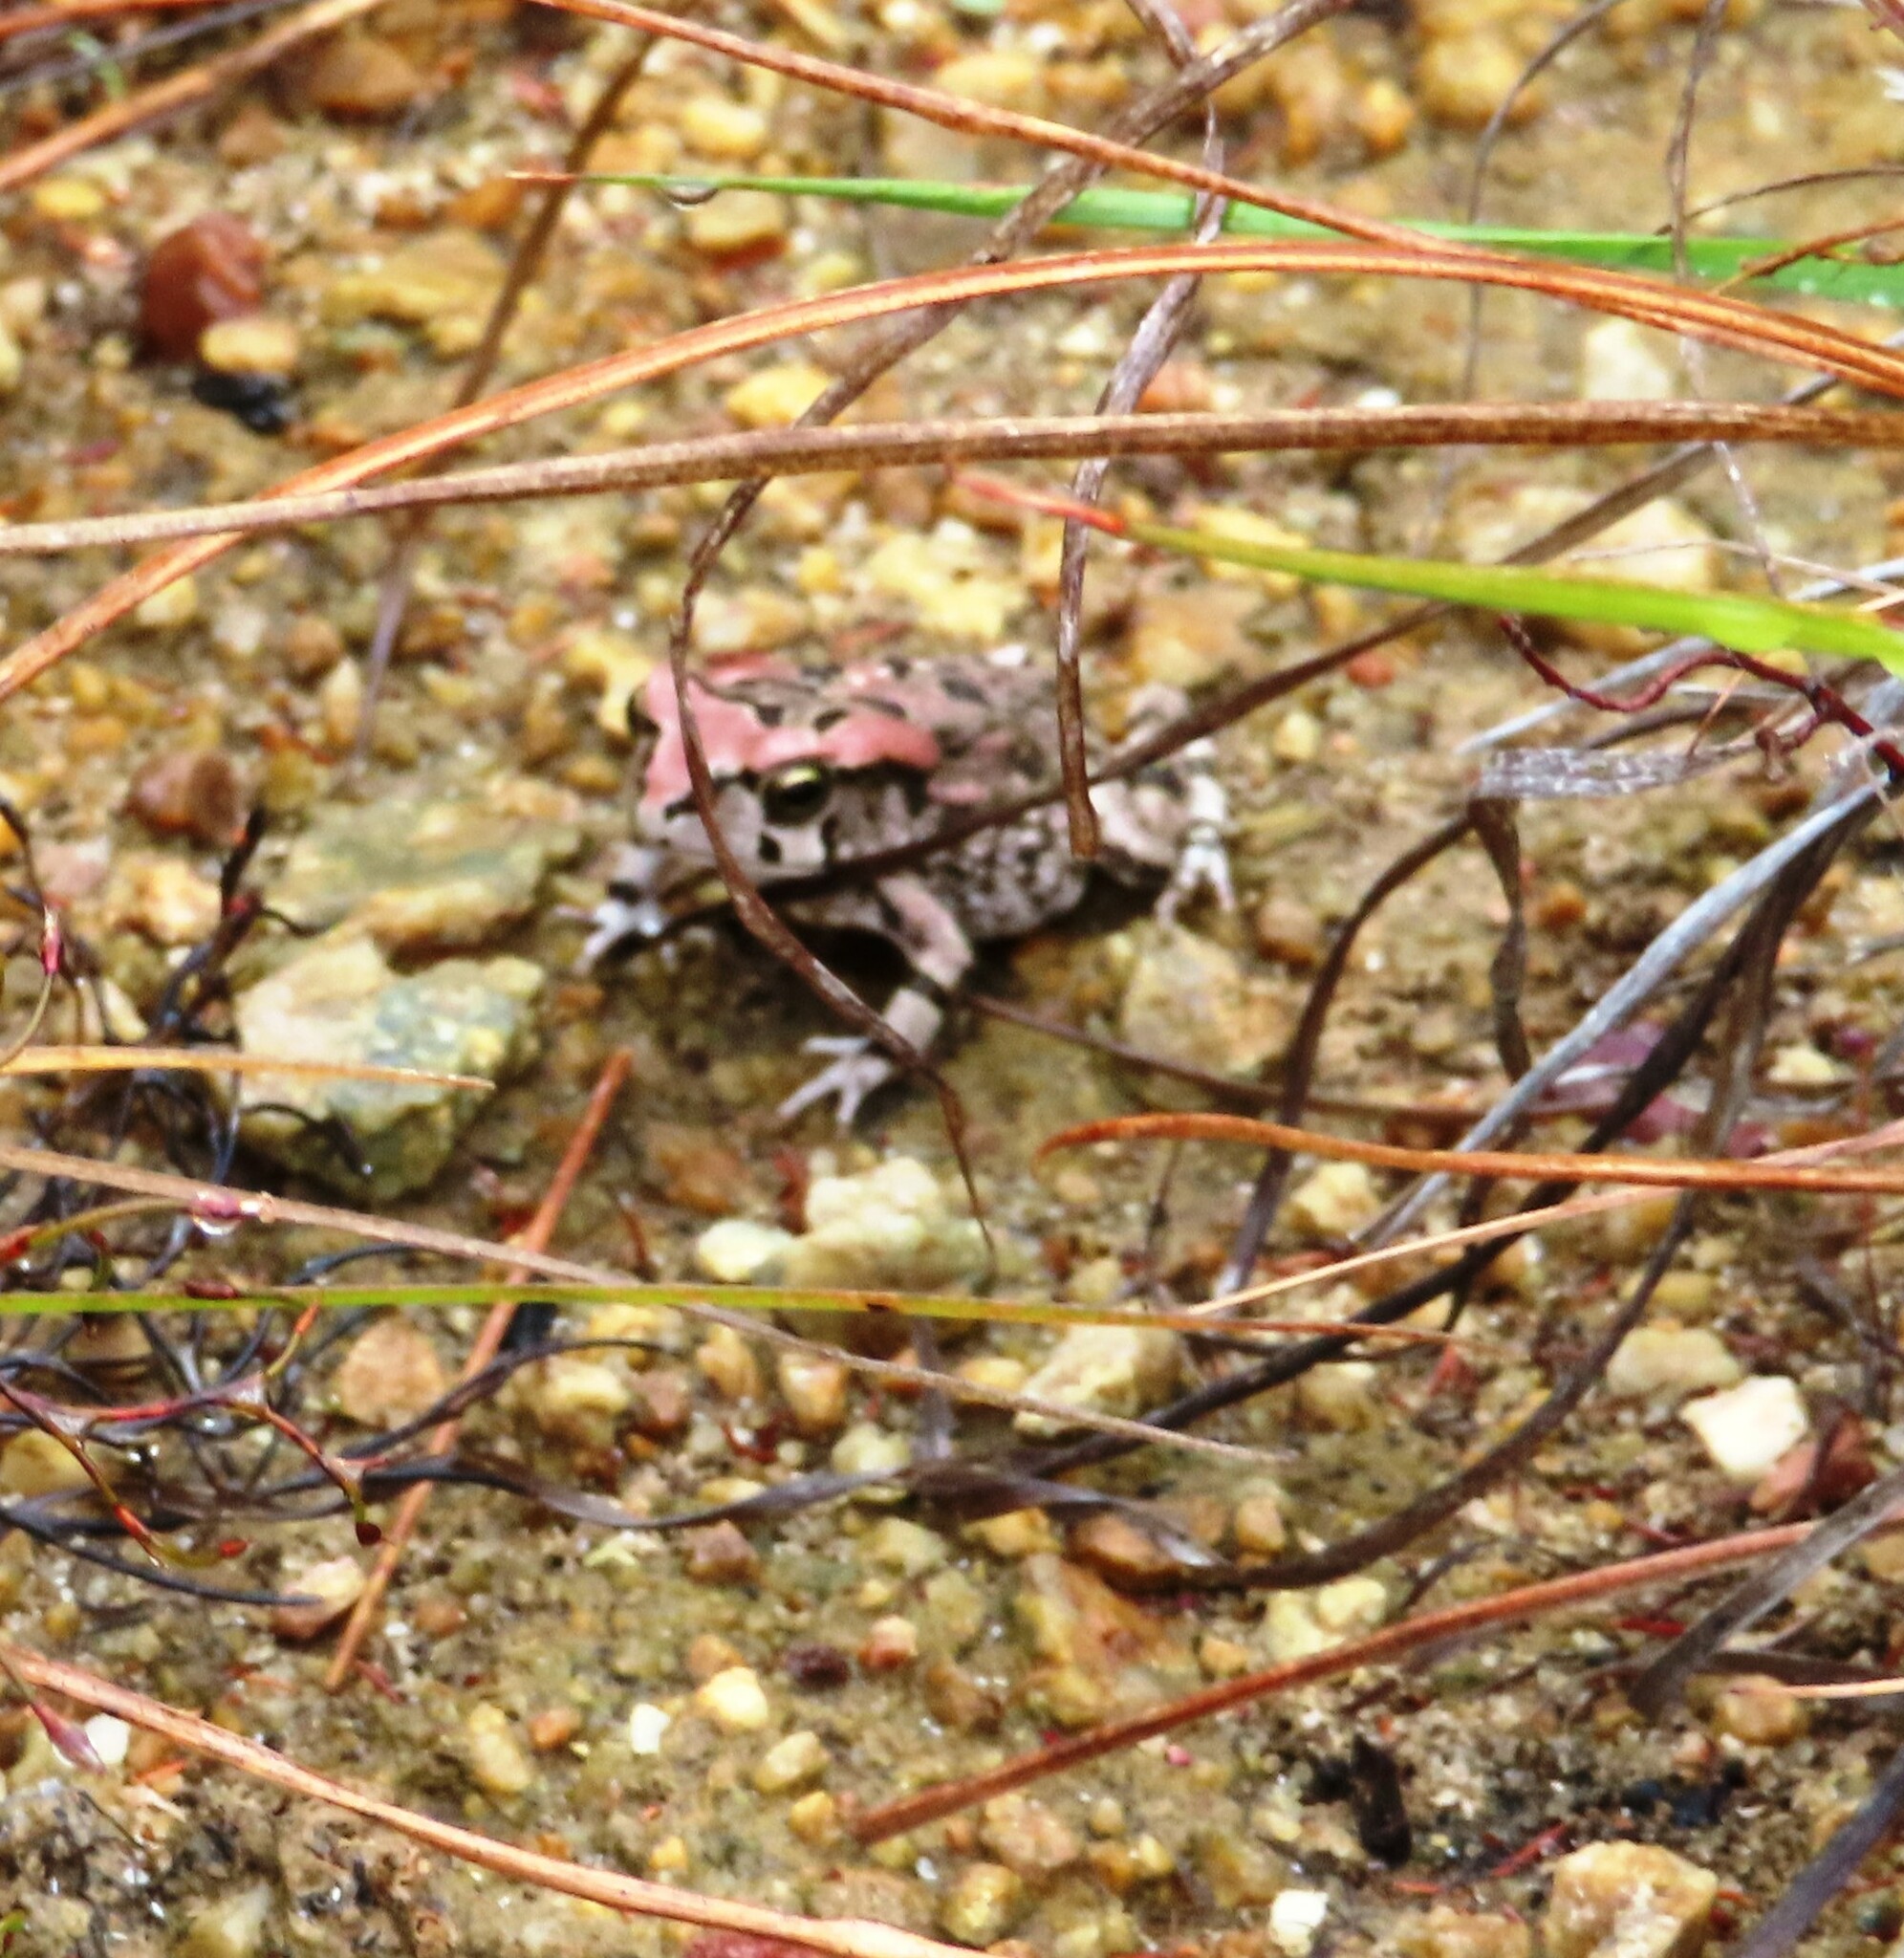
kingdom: Animalia
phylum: Chordata
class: Amphibia
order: Anura
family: Bufonidae
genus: Sclerophrys
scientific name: Sclerophrys capensis
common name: Ranger’s toad
